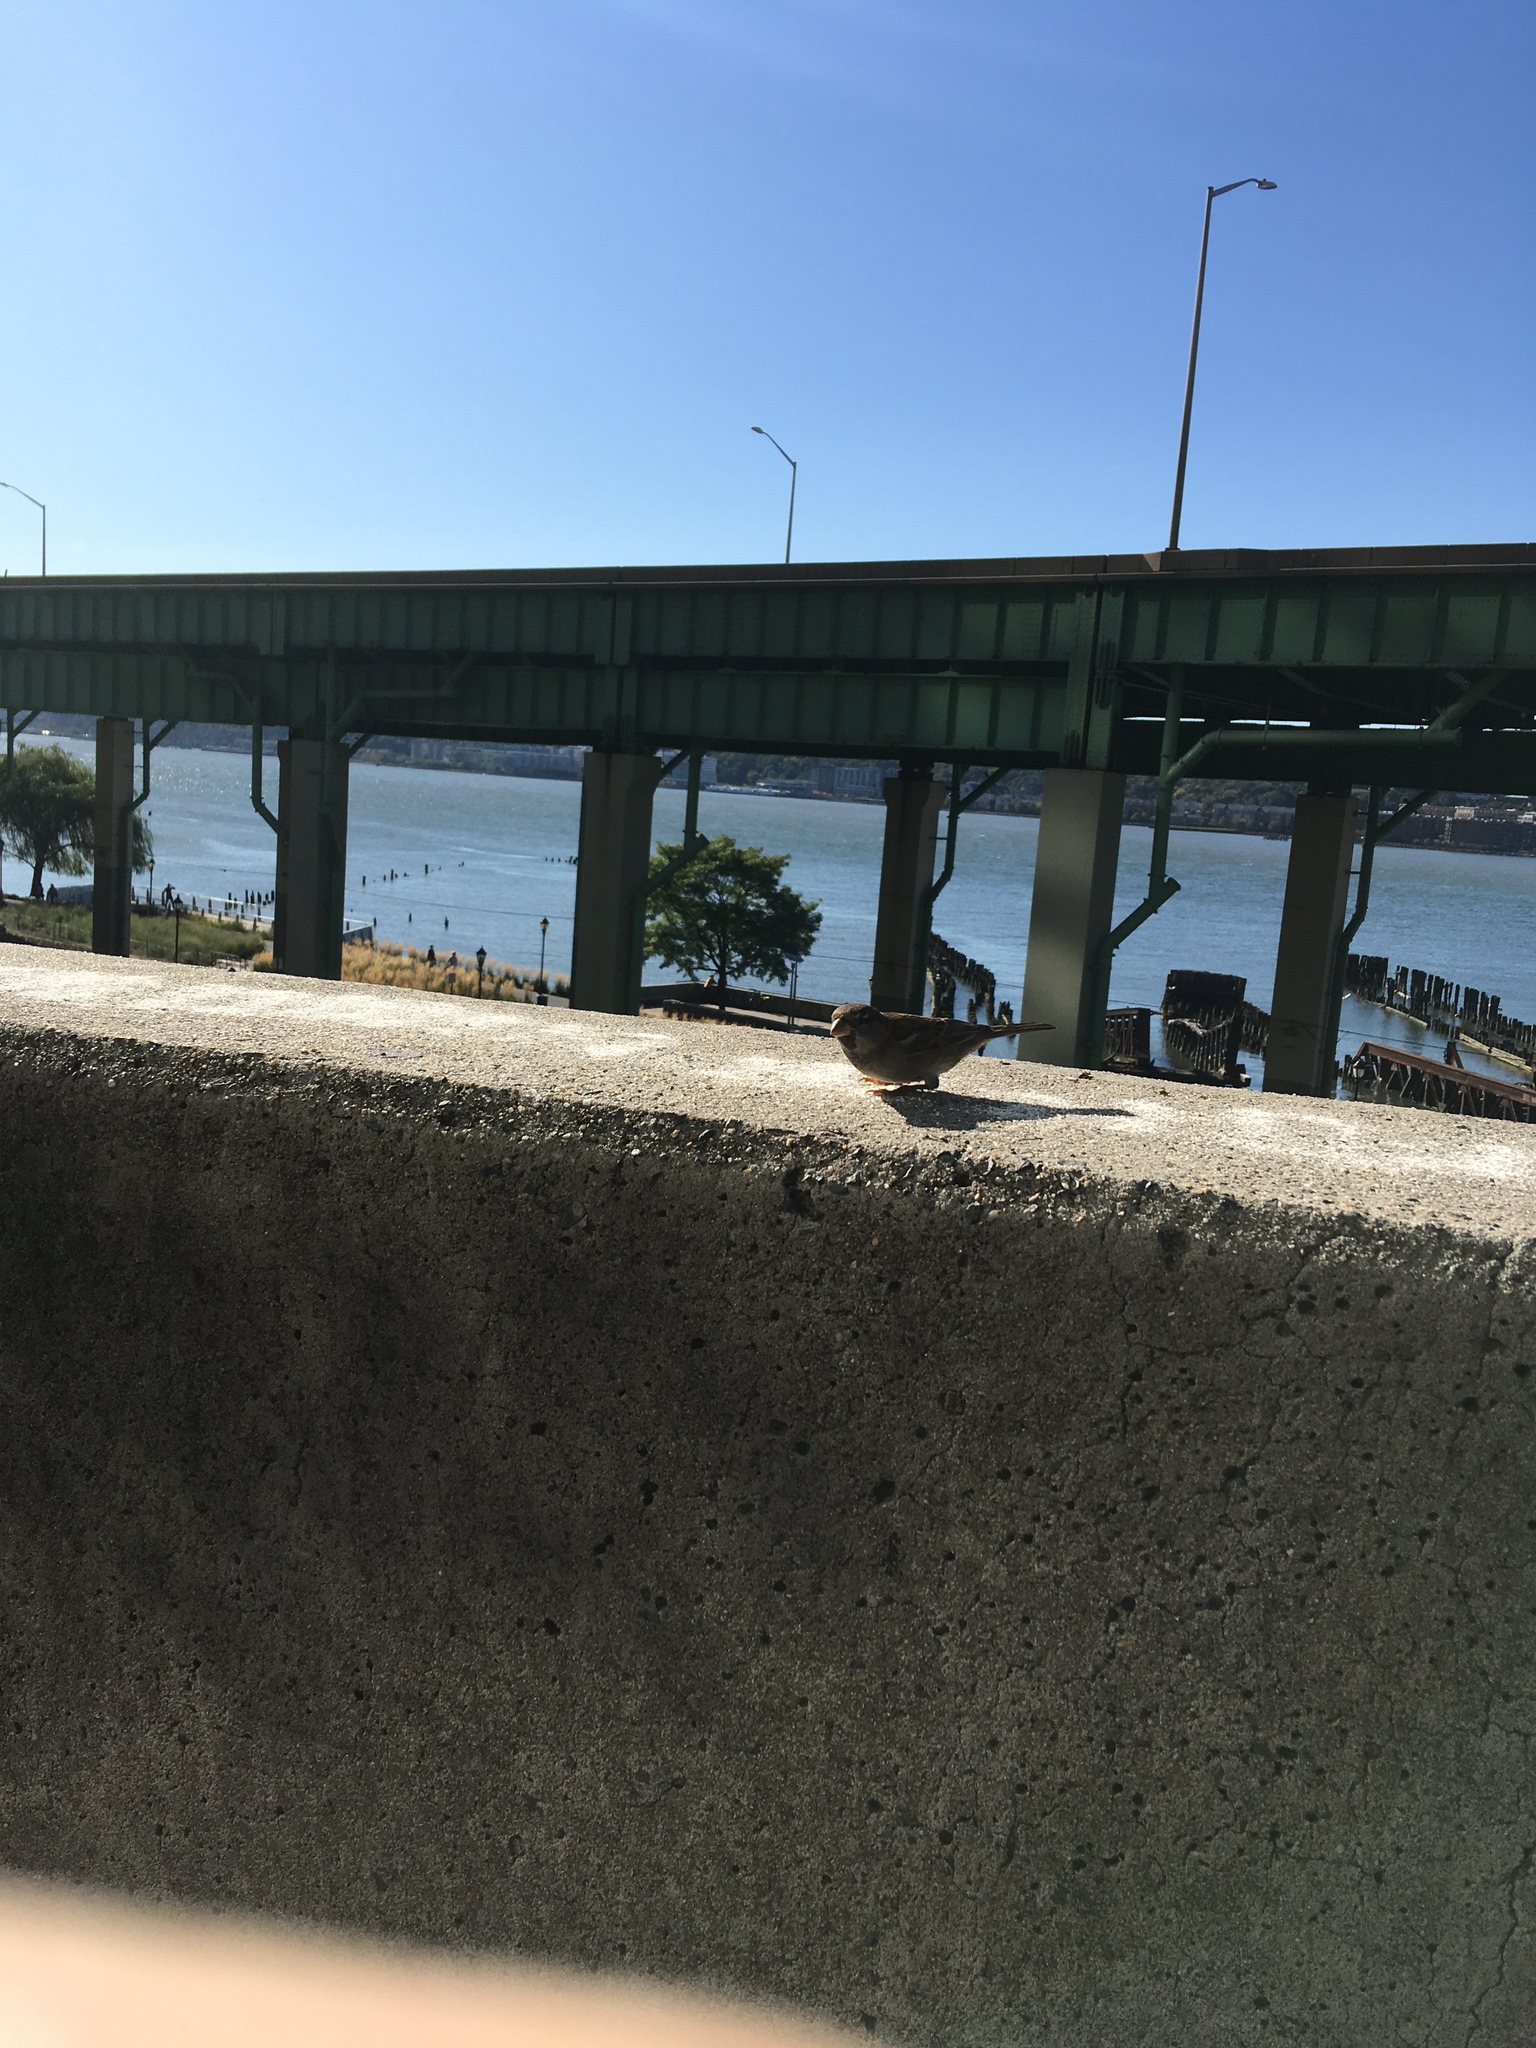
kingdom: Animalia
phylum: Chordata
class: Aves
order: Passeriformes
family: Passeridae
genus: Passer
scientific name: Passer domesticus
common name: House sparrow
